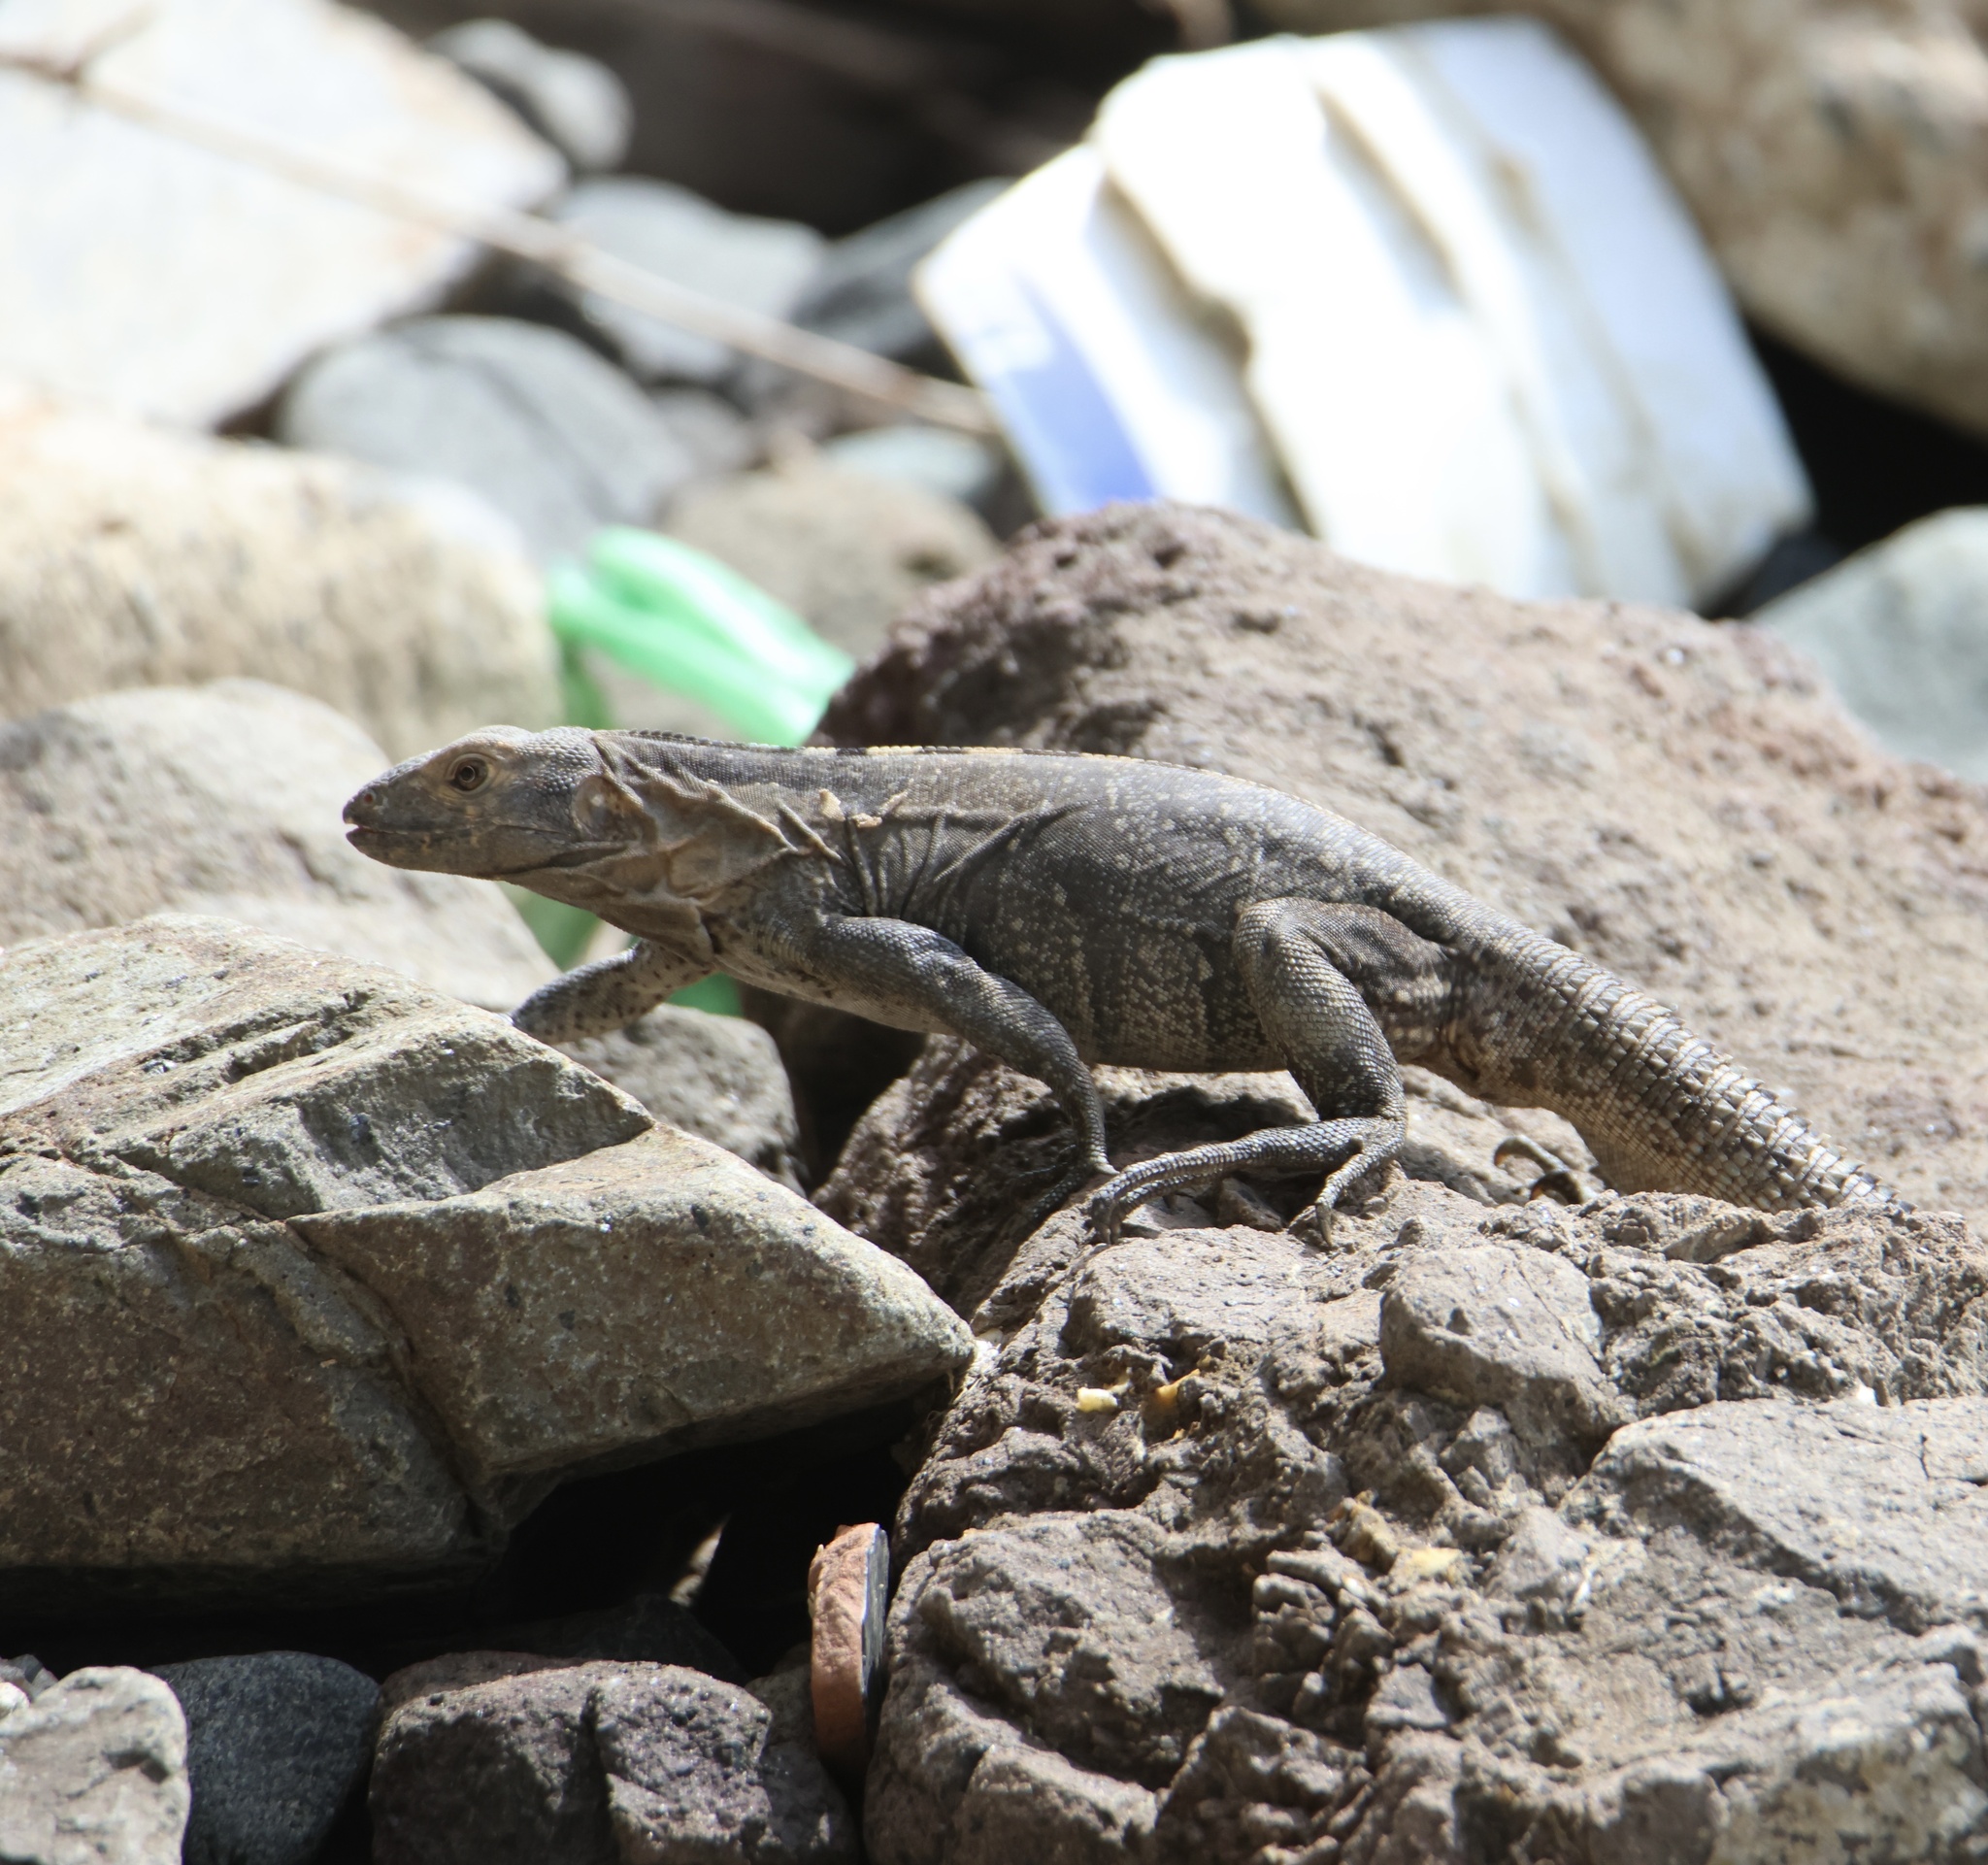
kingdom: Animalia
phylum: Chordata
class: Squamata
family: Iguanidae
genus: Ctenosaura
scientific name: Ctenosaura similis
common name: Black spiny-tailed iguana
